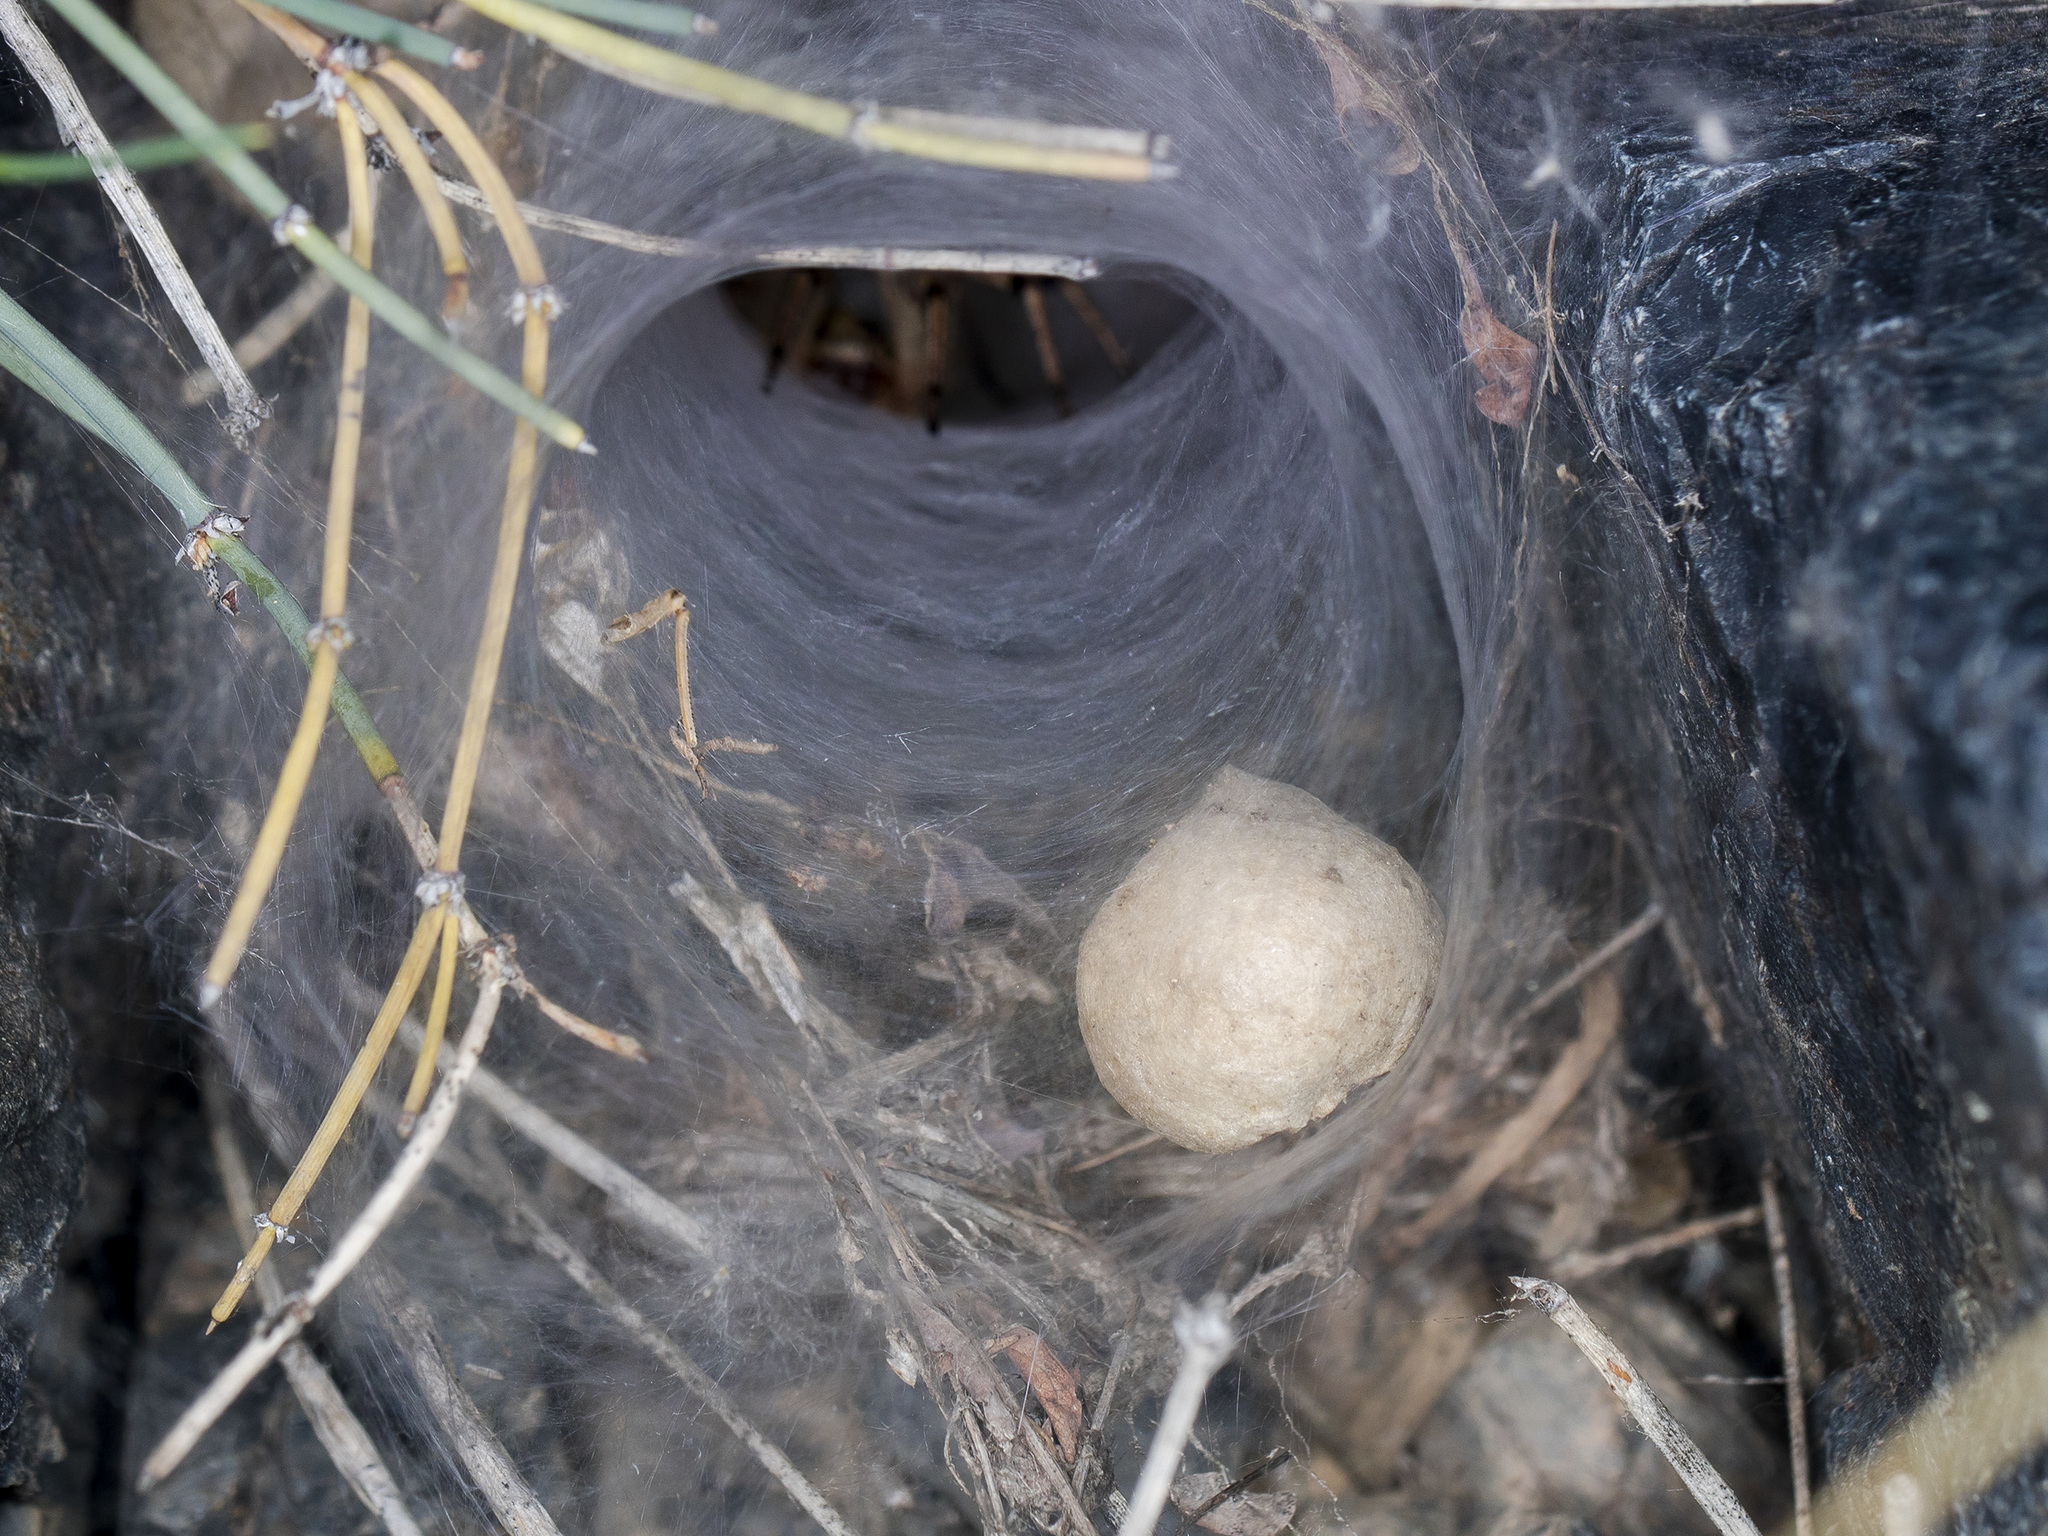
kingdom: Animalia
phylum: Arthropoda
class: Arachnida
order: Araneae
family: Agelenidae
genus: Agelena
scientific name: Agelena orientalis
